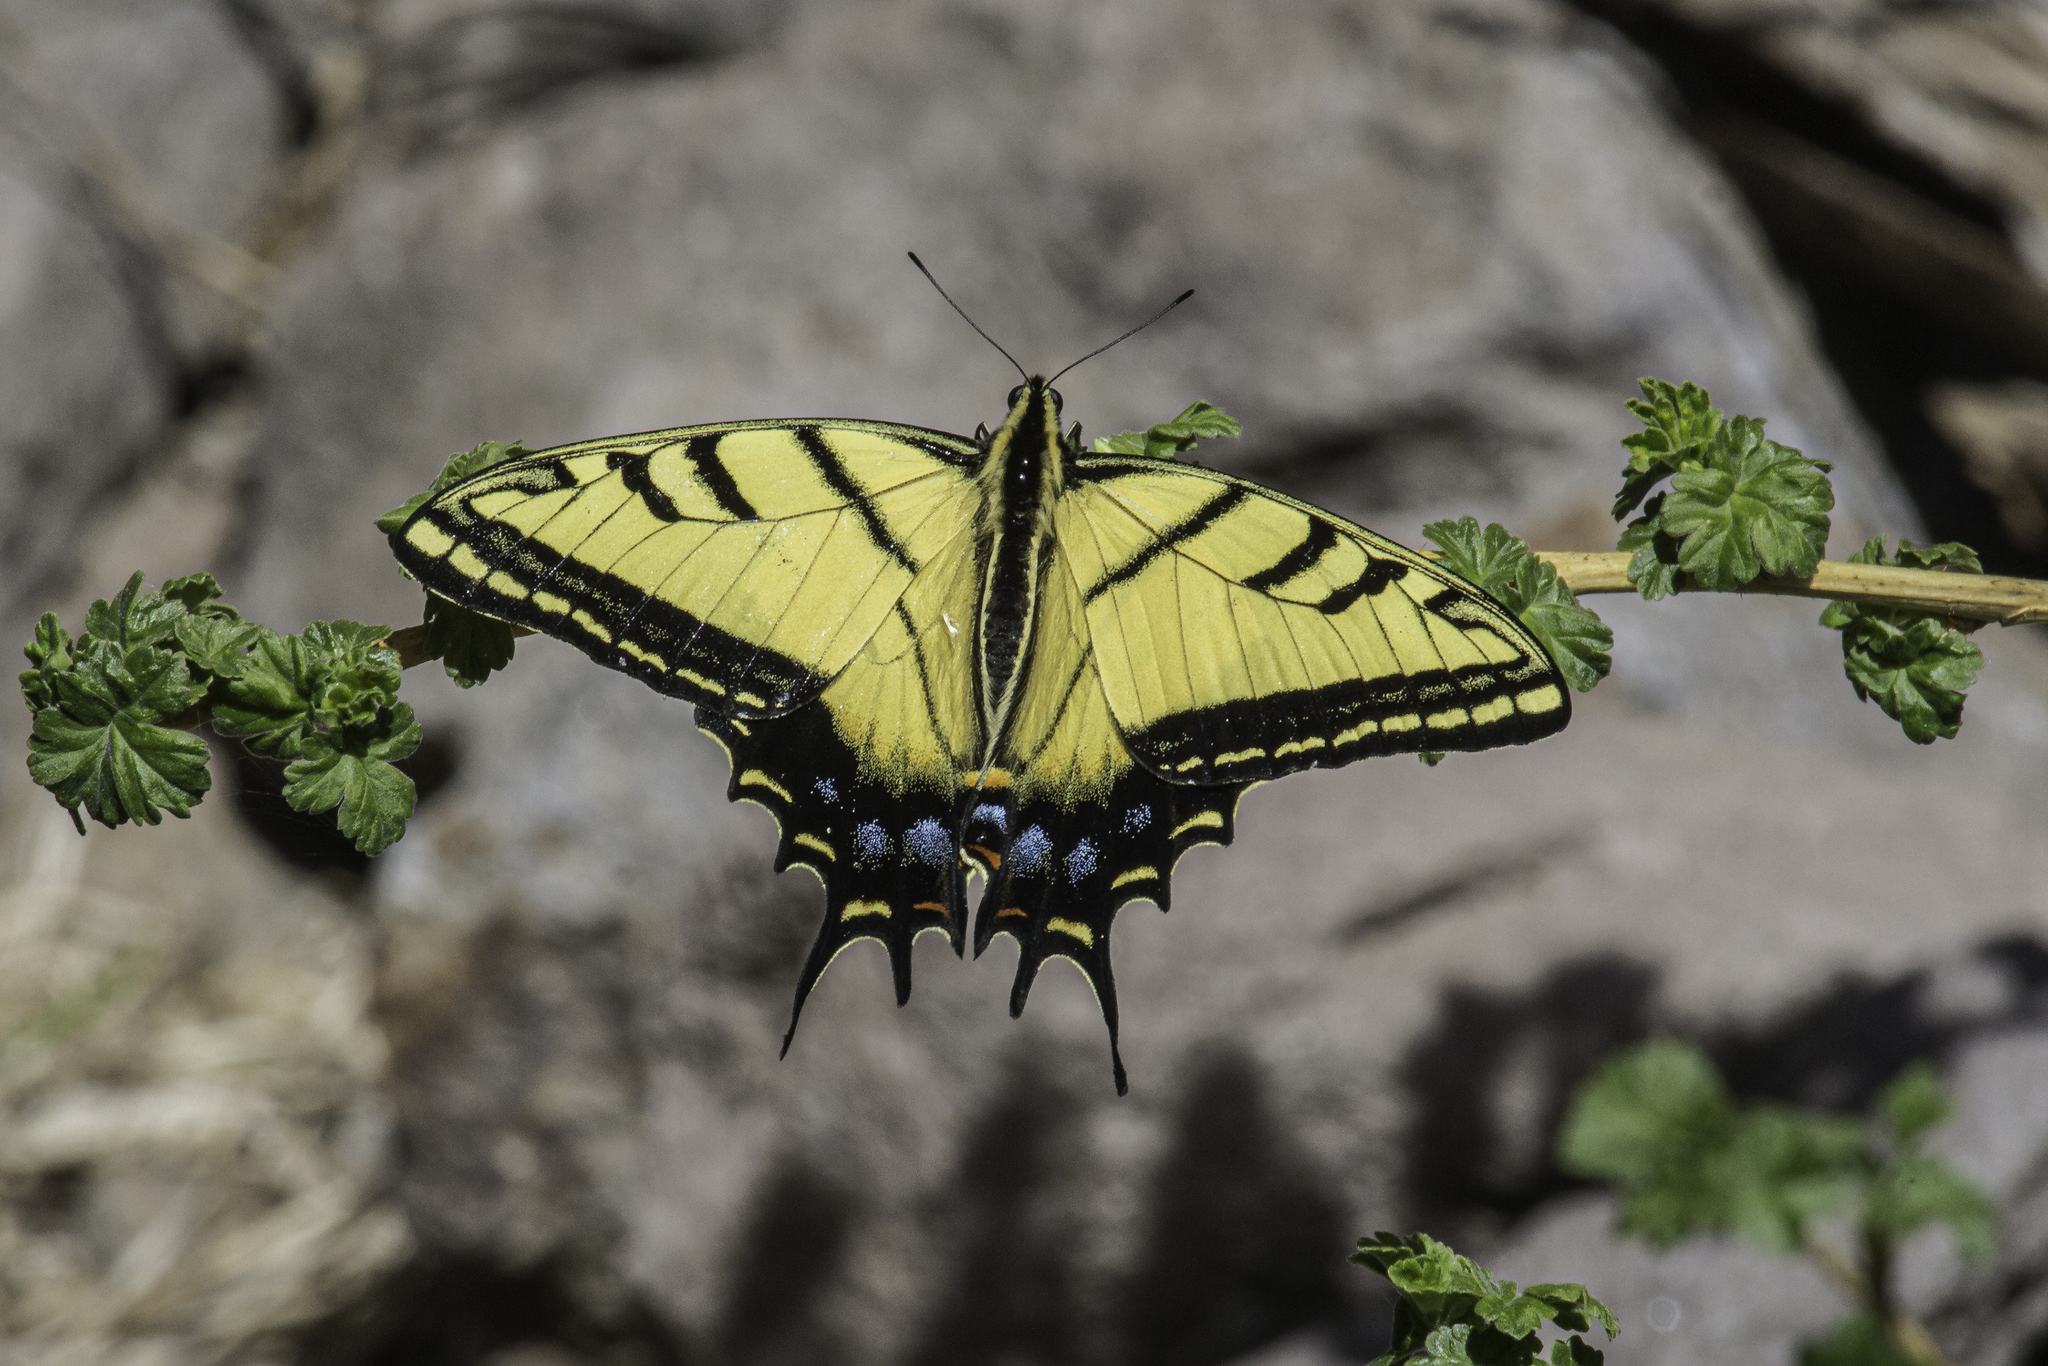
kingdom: Animalia
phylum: Arthropoda
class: Insecta
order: Lepidoptera
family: Papilionidae
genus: Papilio
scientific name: Papilio multicaudata
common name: Two-tailed tiger swallowtail
